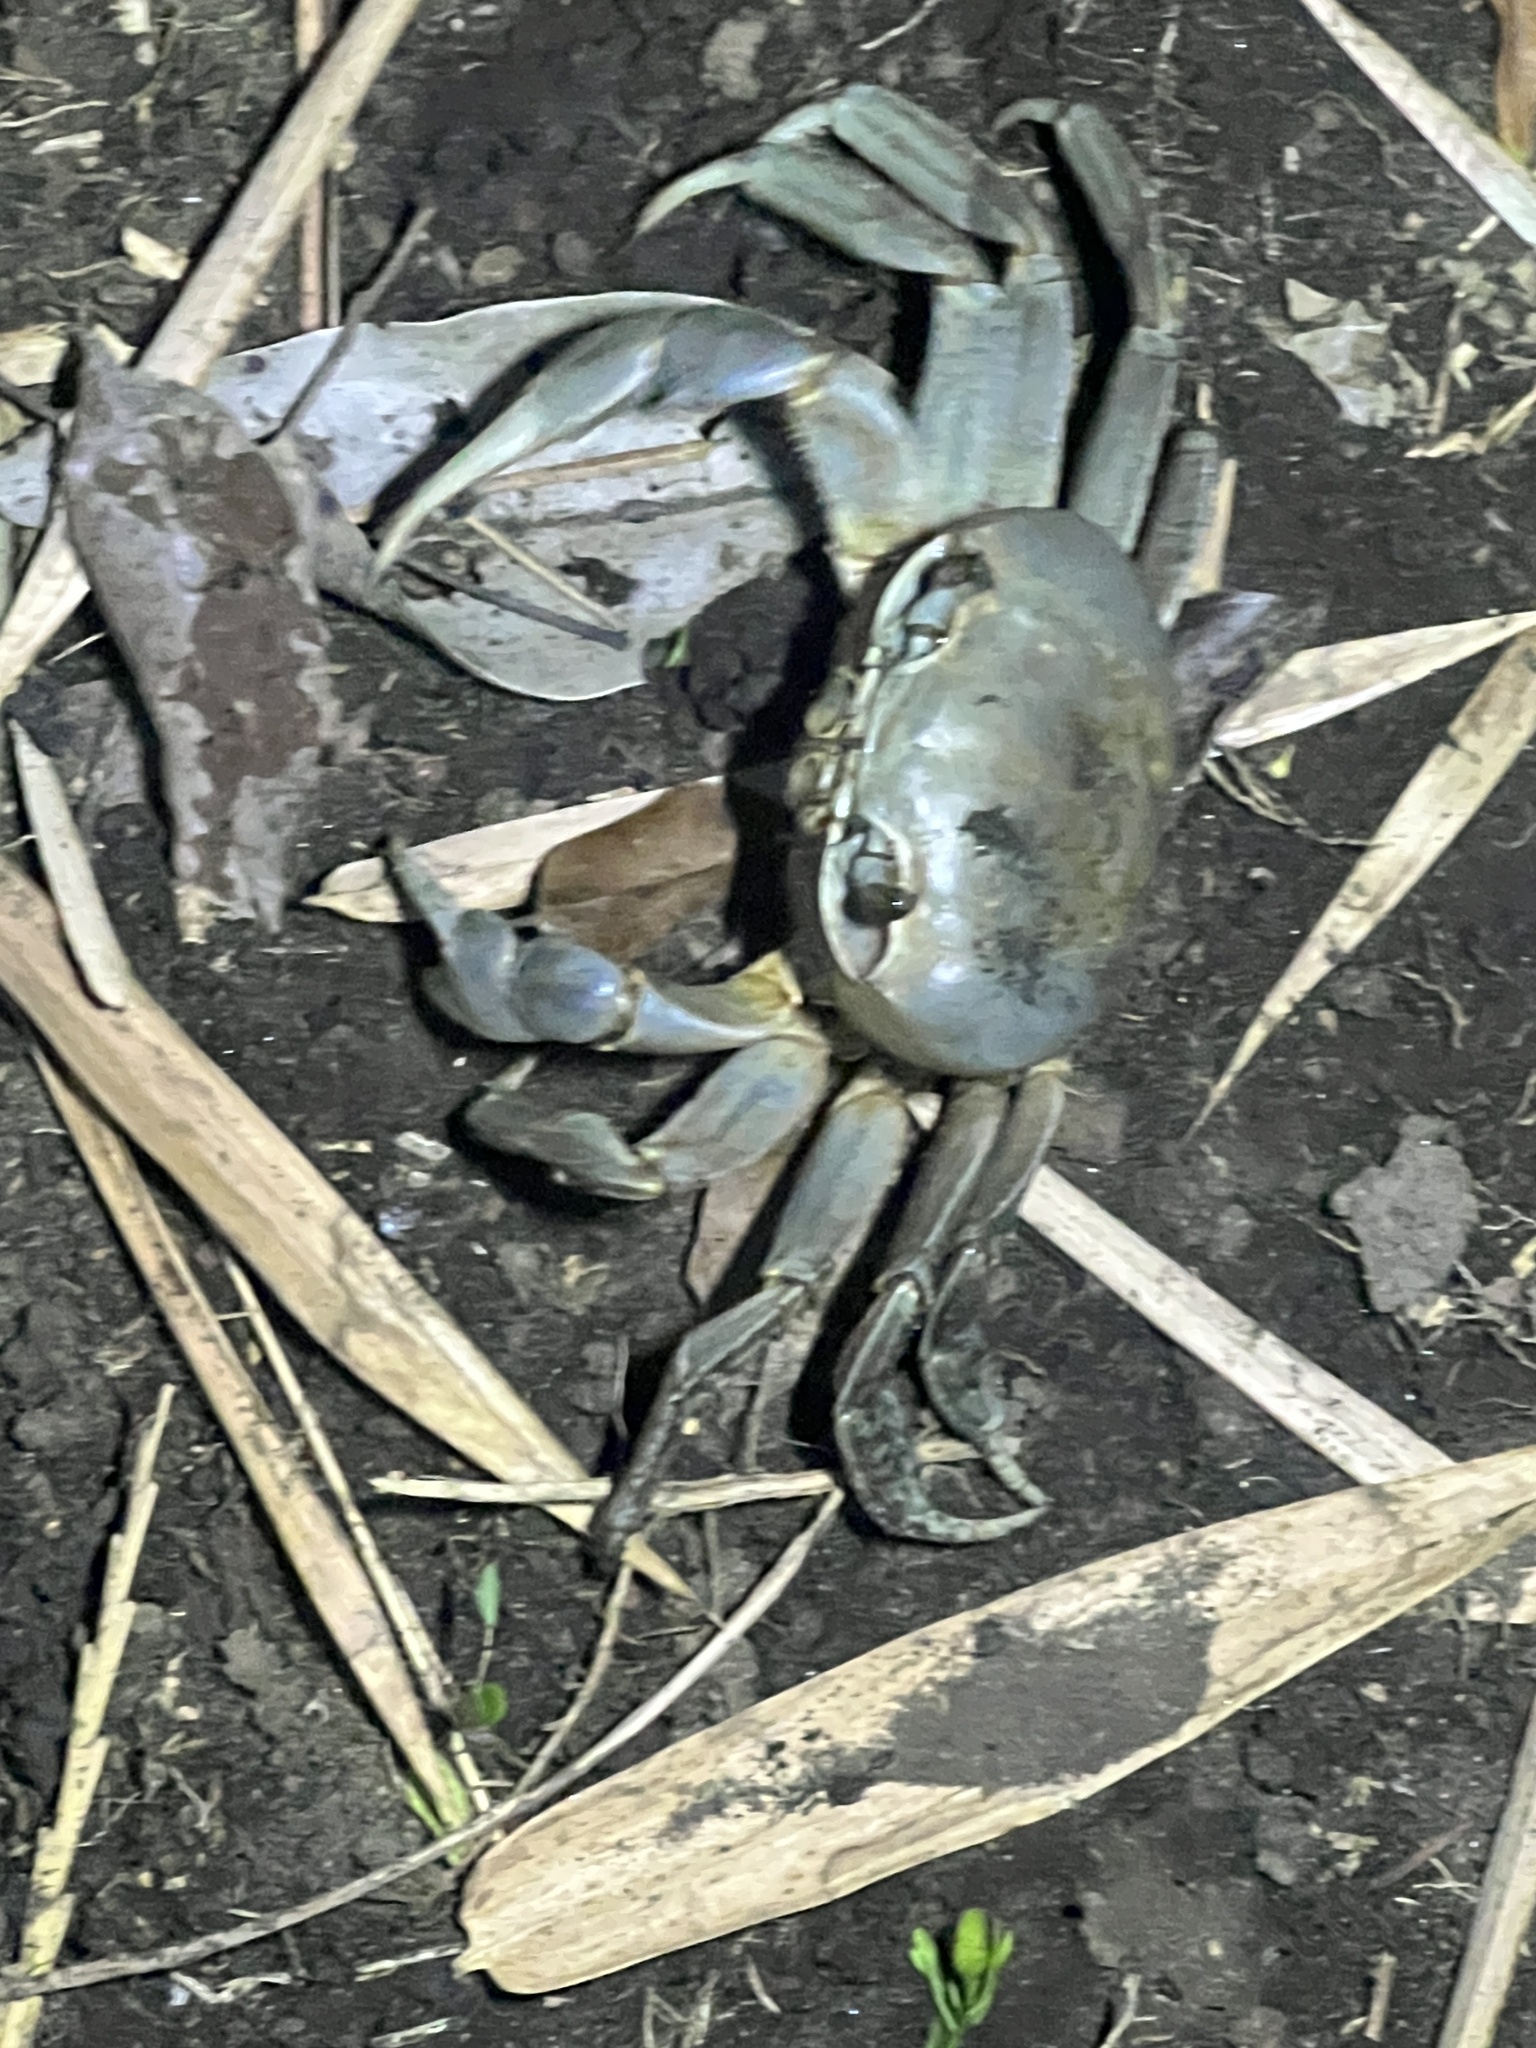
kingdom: Animalia
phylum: Arthropoda
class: Malacostraca
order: Decapoda
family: Gecarcinidae
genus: Cardisoma
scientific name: Cardisoma guanhumi
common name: Great land crab
